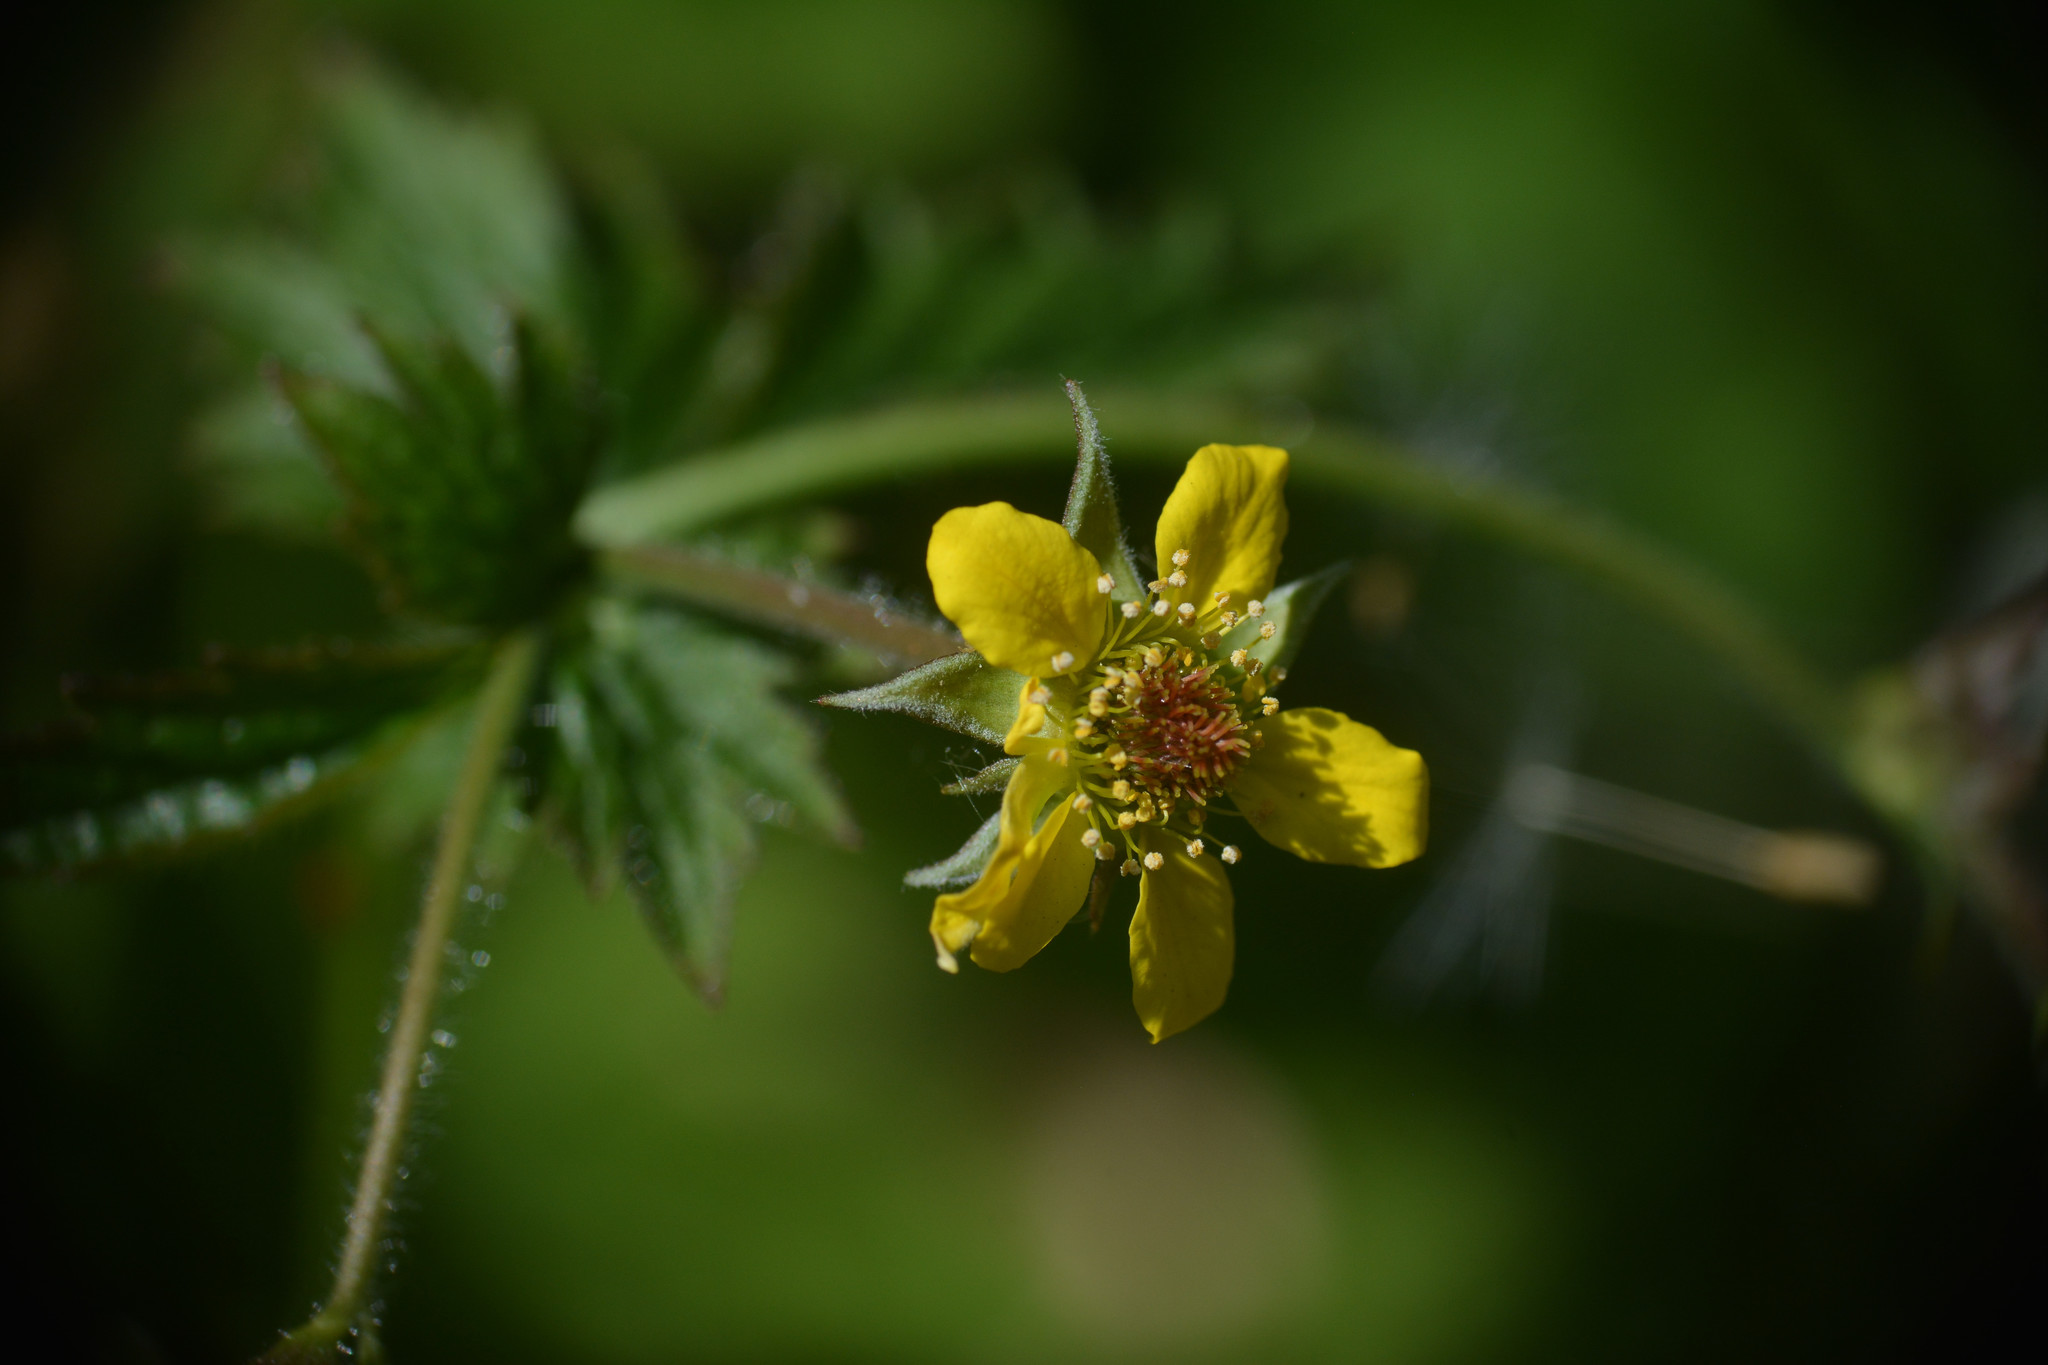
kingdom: Plantae
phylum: Tracheophyta
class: Magnoliopsida
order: Rosales
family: Rosaceae
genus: Geum
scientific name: Geum urbanum
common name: Wood avens
